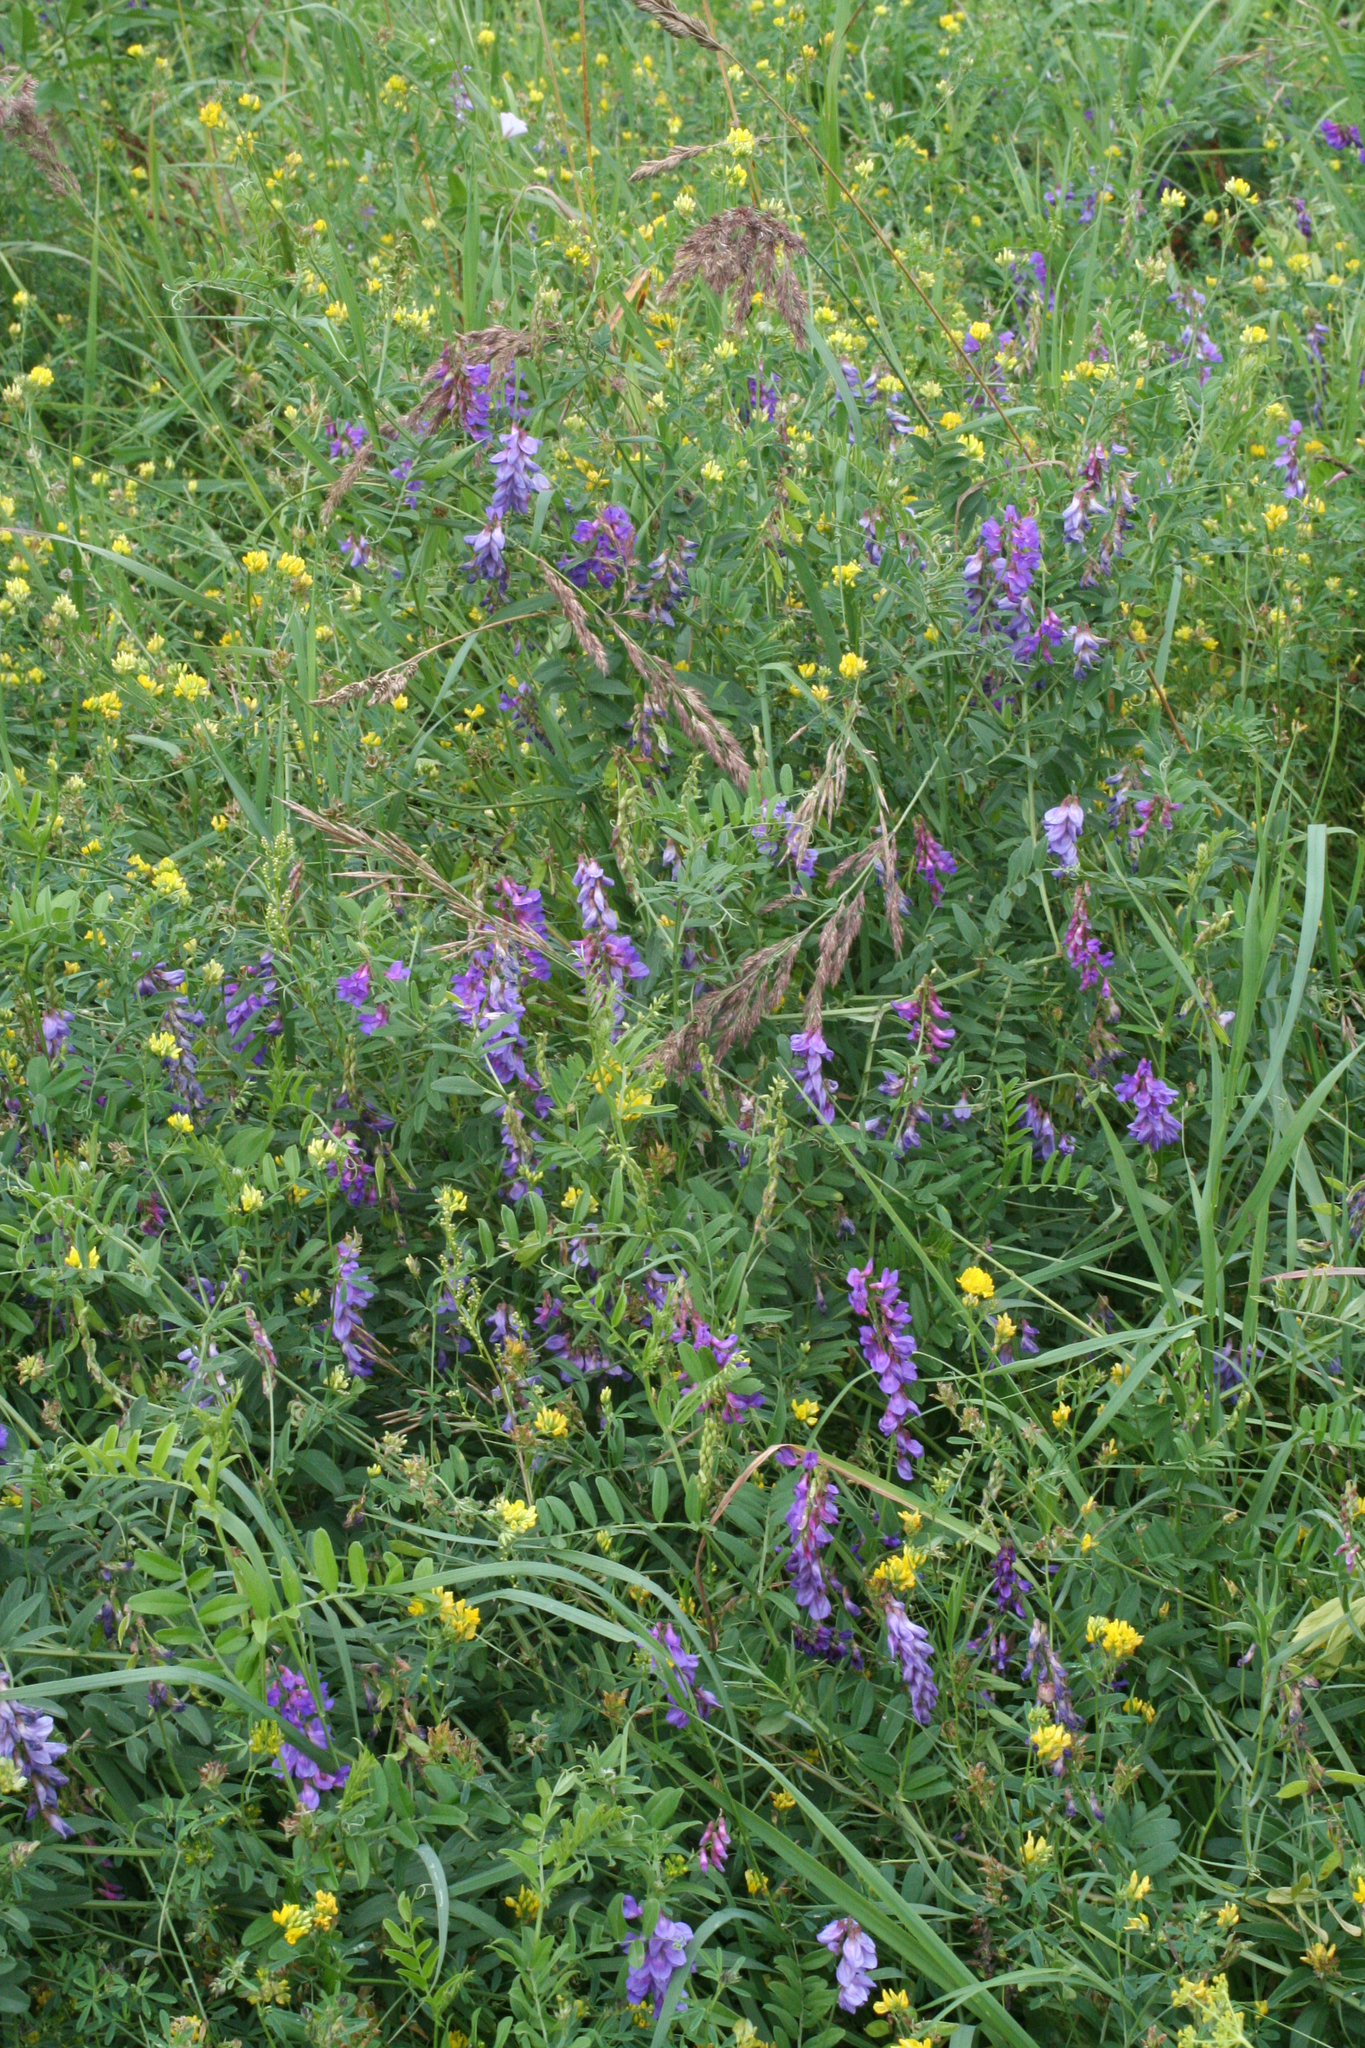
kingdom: Plantae
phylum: Tracheophyta
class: Magnoliopsida
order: Fabales
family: Fabaceae
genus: Vicia
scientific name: Vicia amoena
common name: Cheder ebs
